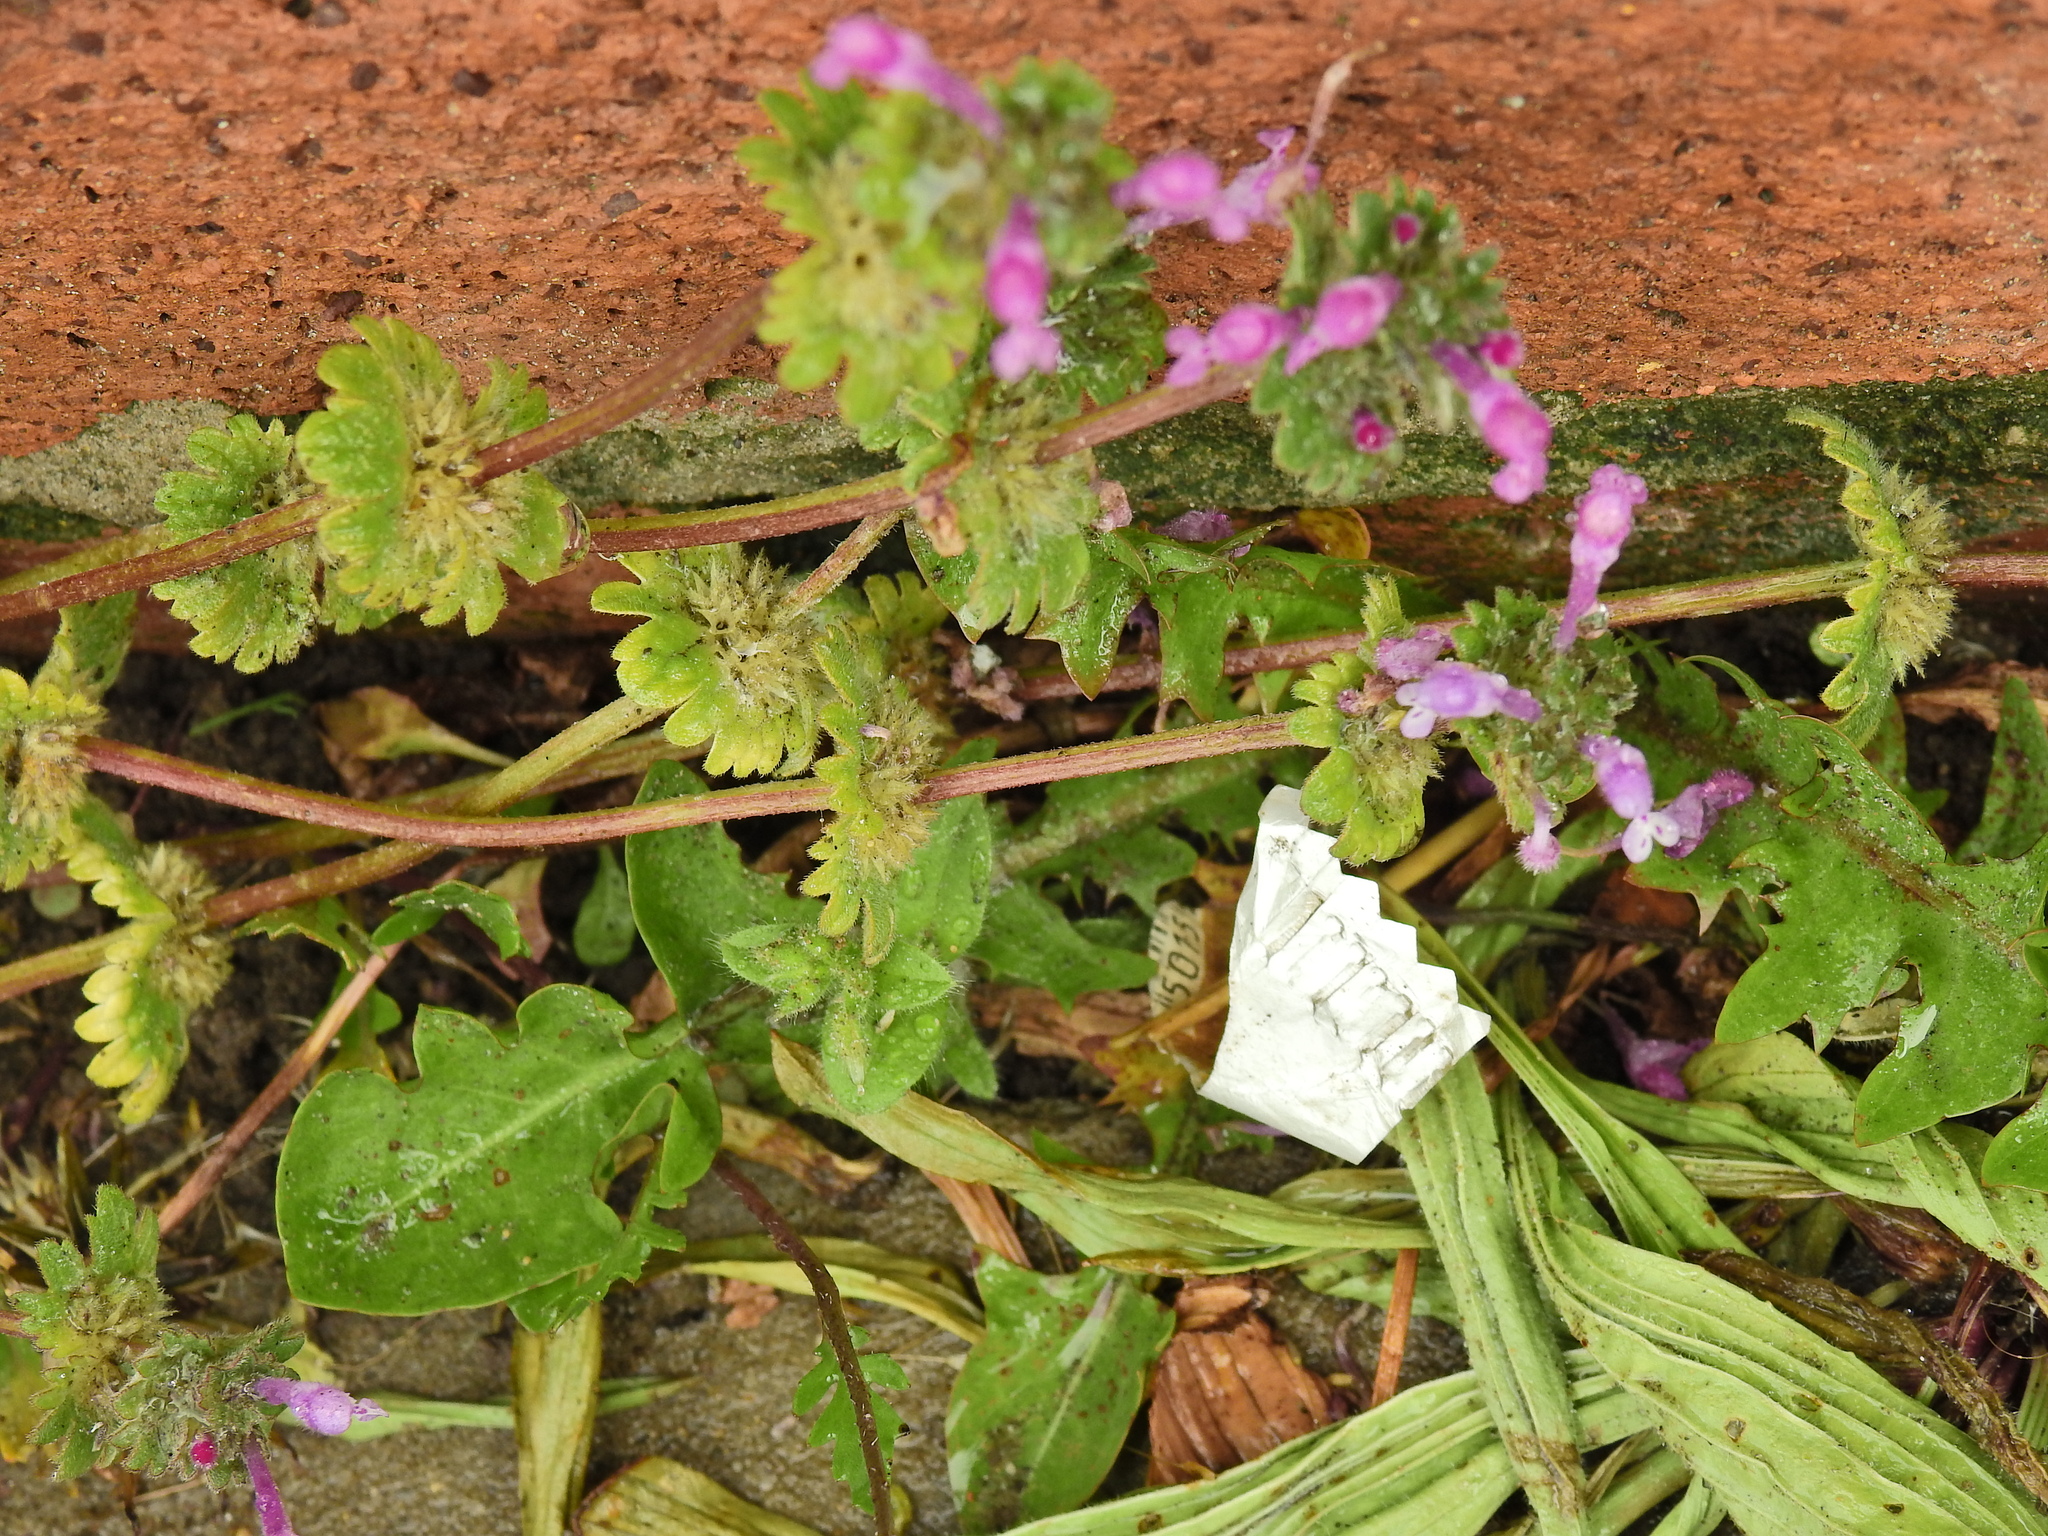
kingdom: Plantae
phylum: Tracheophyta
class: Magnoliopsida
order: Lamiales
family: Lamiaceae
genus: Lamium
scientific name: Lamium amplexicaule
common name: Henbit dead-nettle
